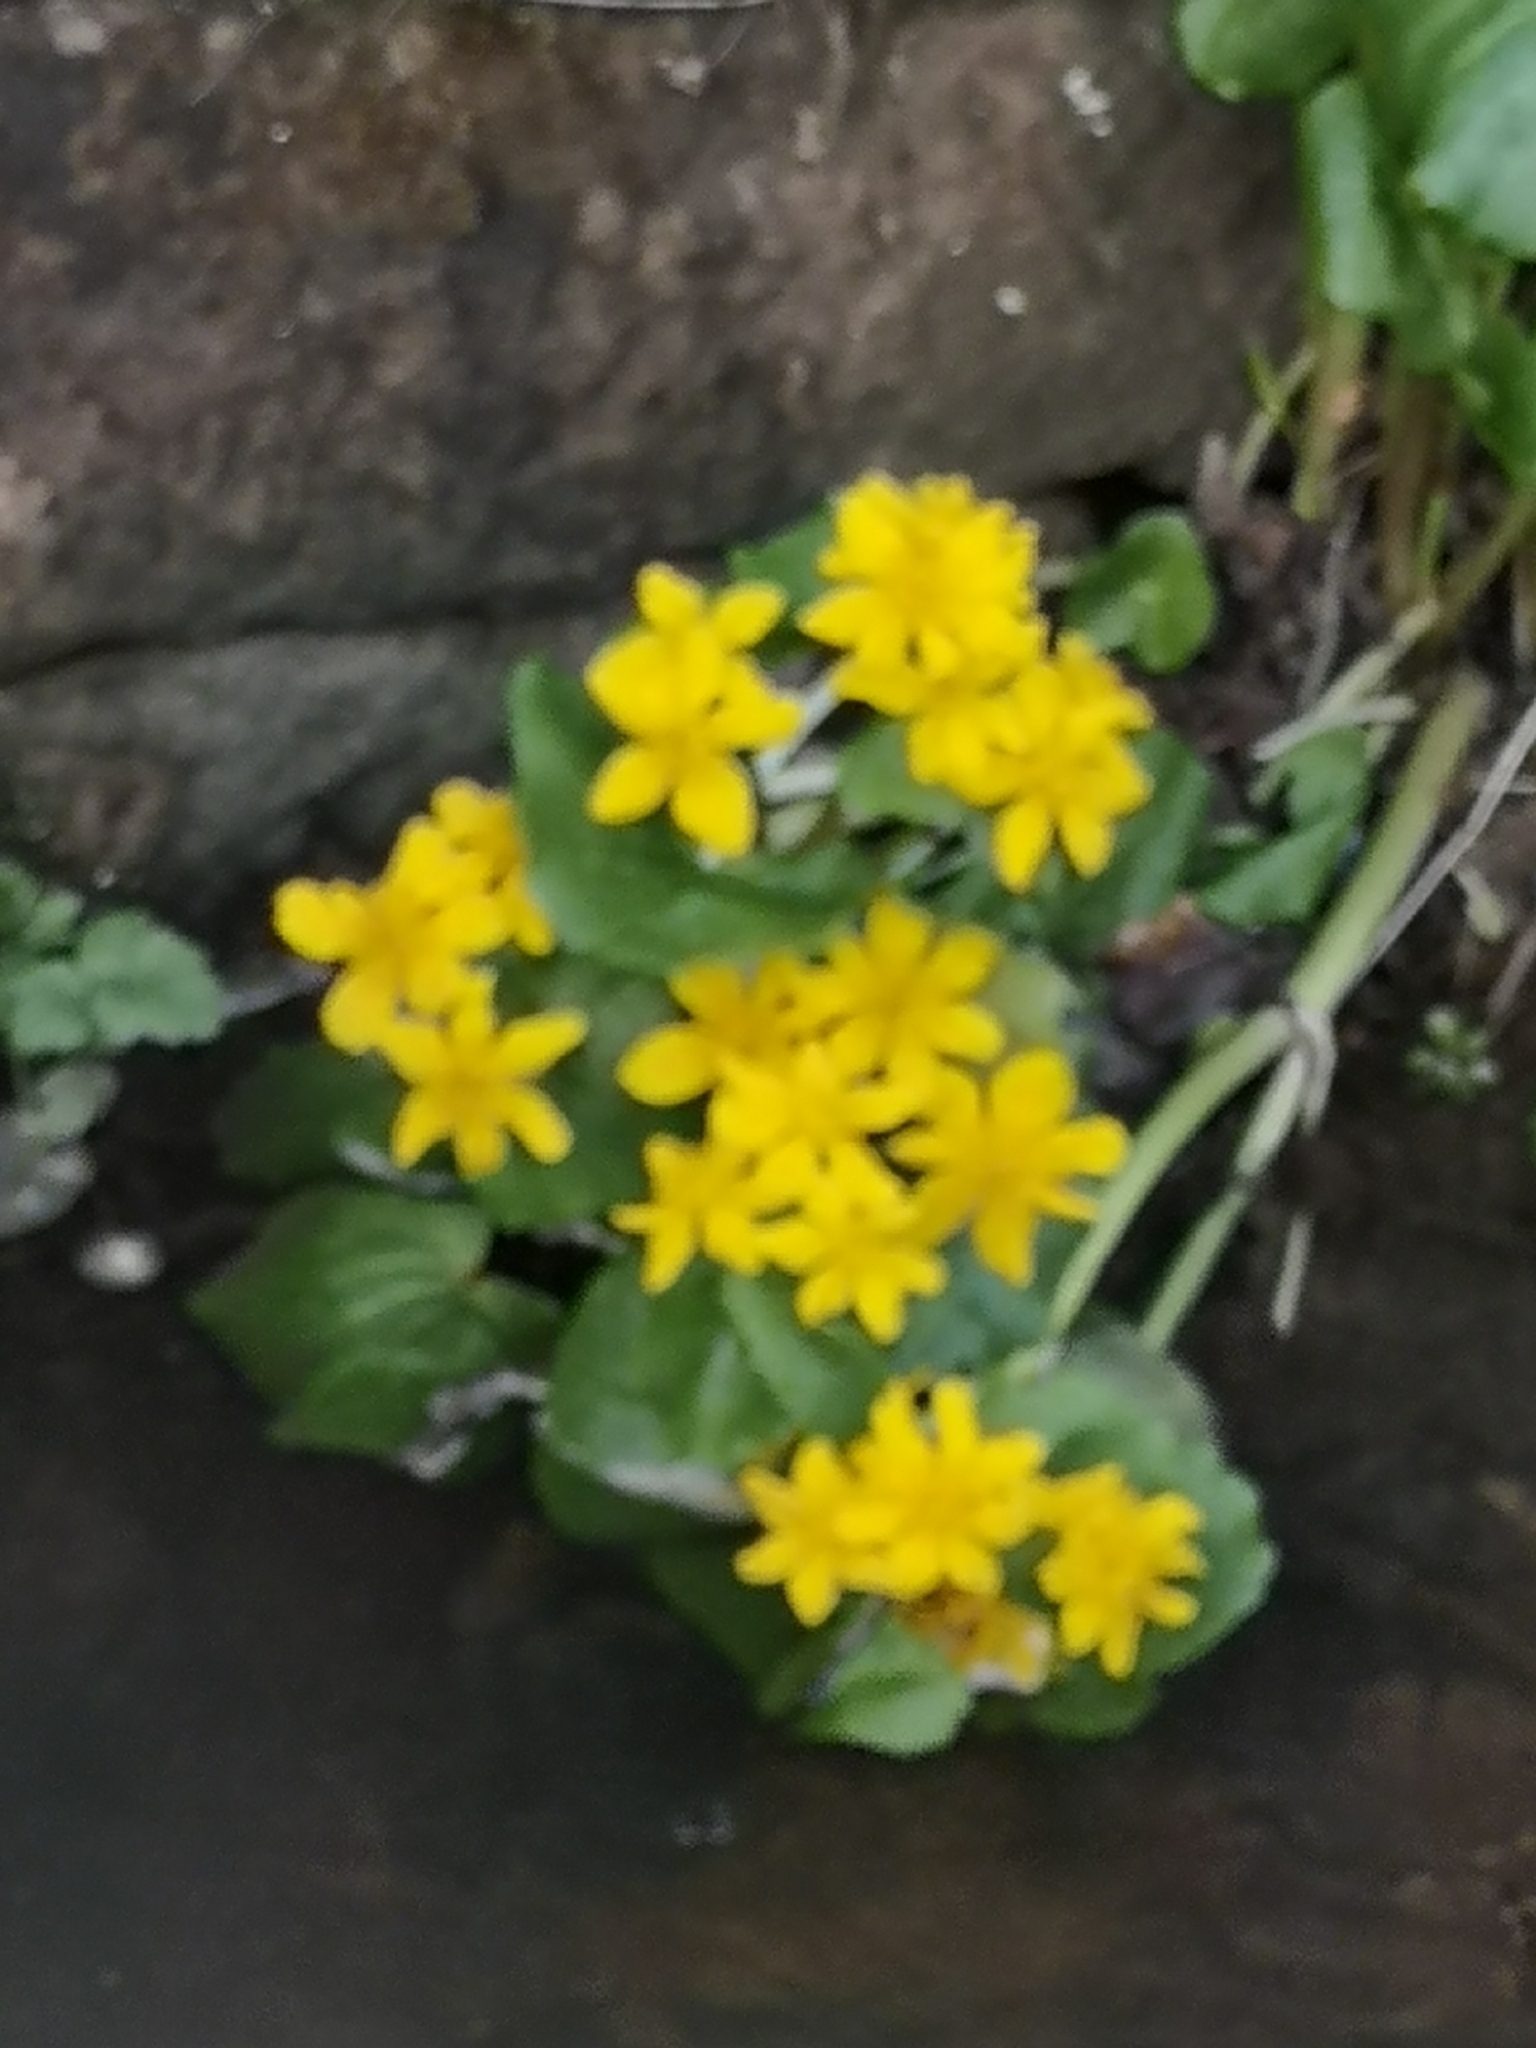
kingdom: Plantae
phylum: Tracheophyta
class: Magnoliopsida
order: Ranunculales
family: Ranunculaceae
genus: Caltha
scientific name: Caltha palustris
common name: Marsh marigold
